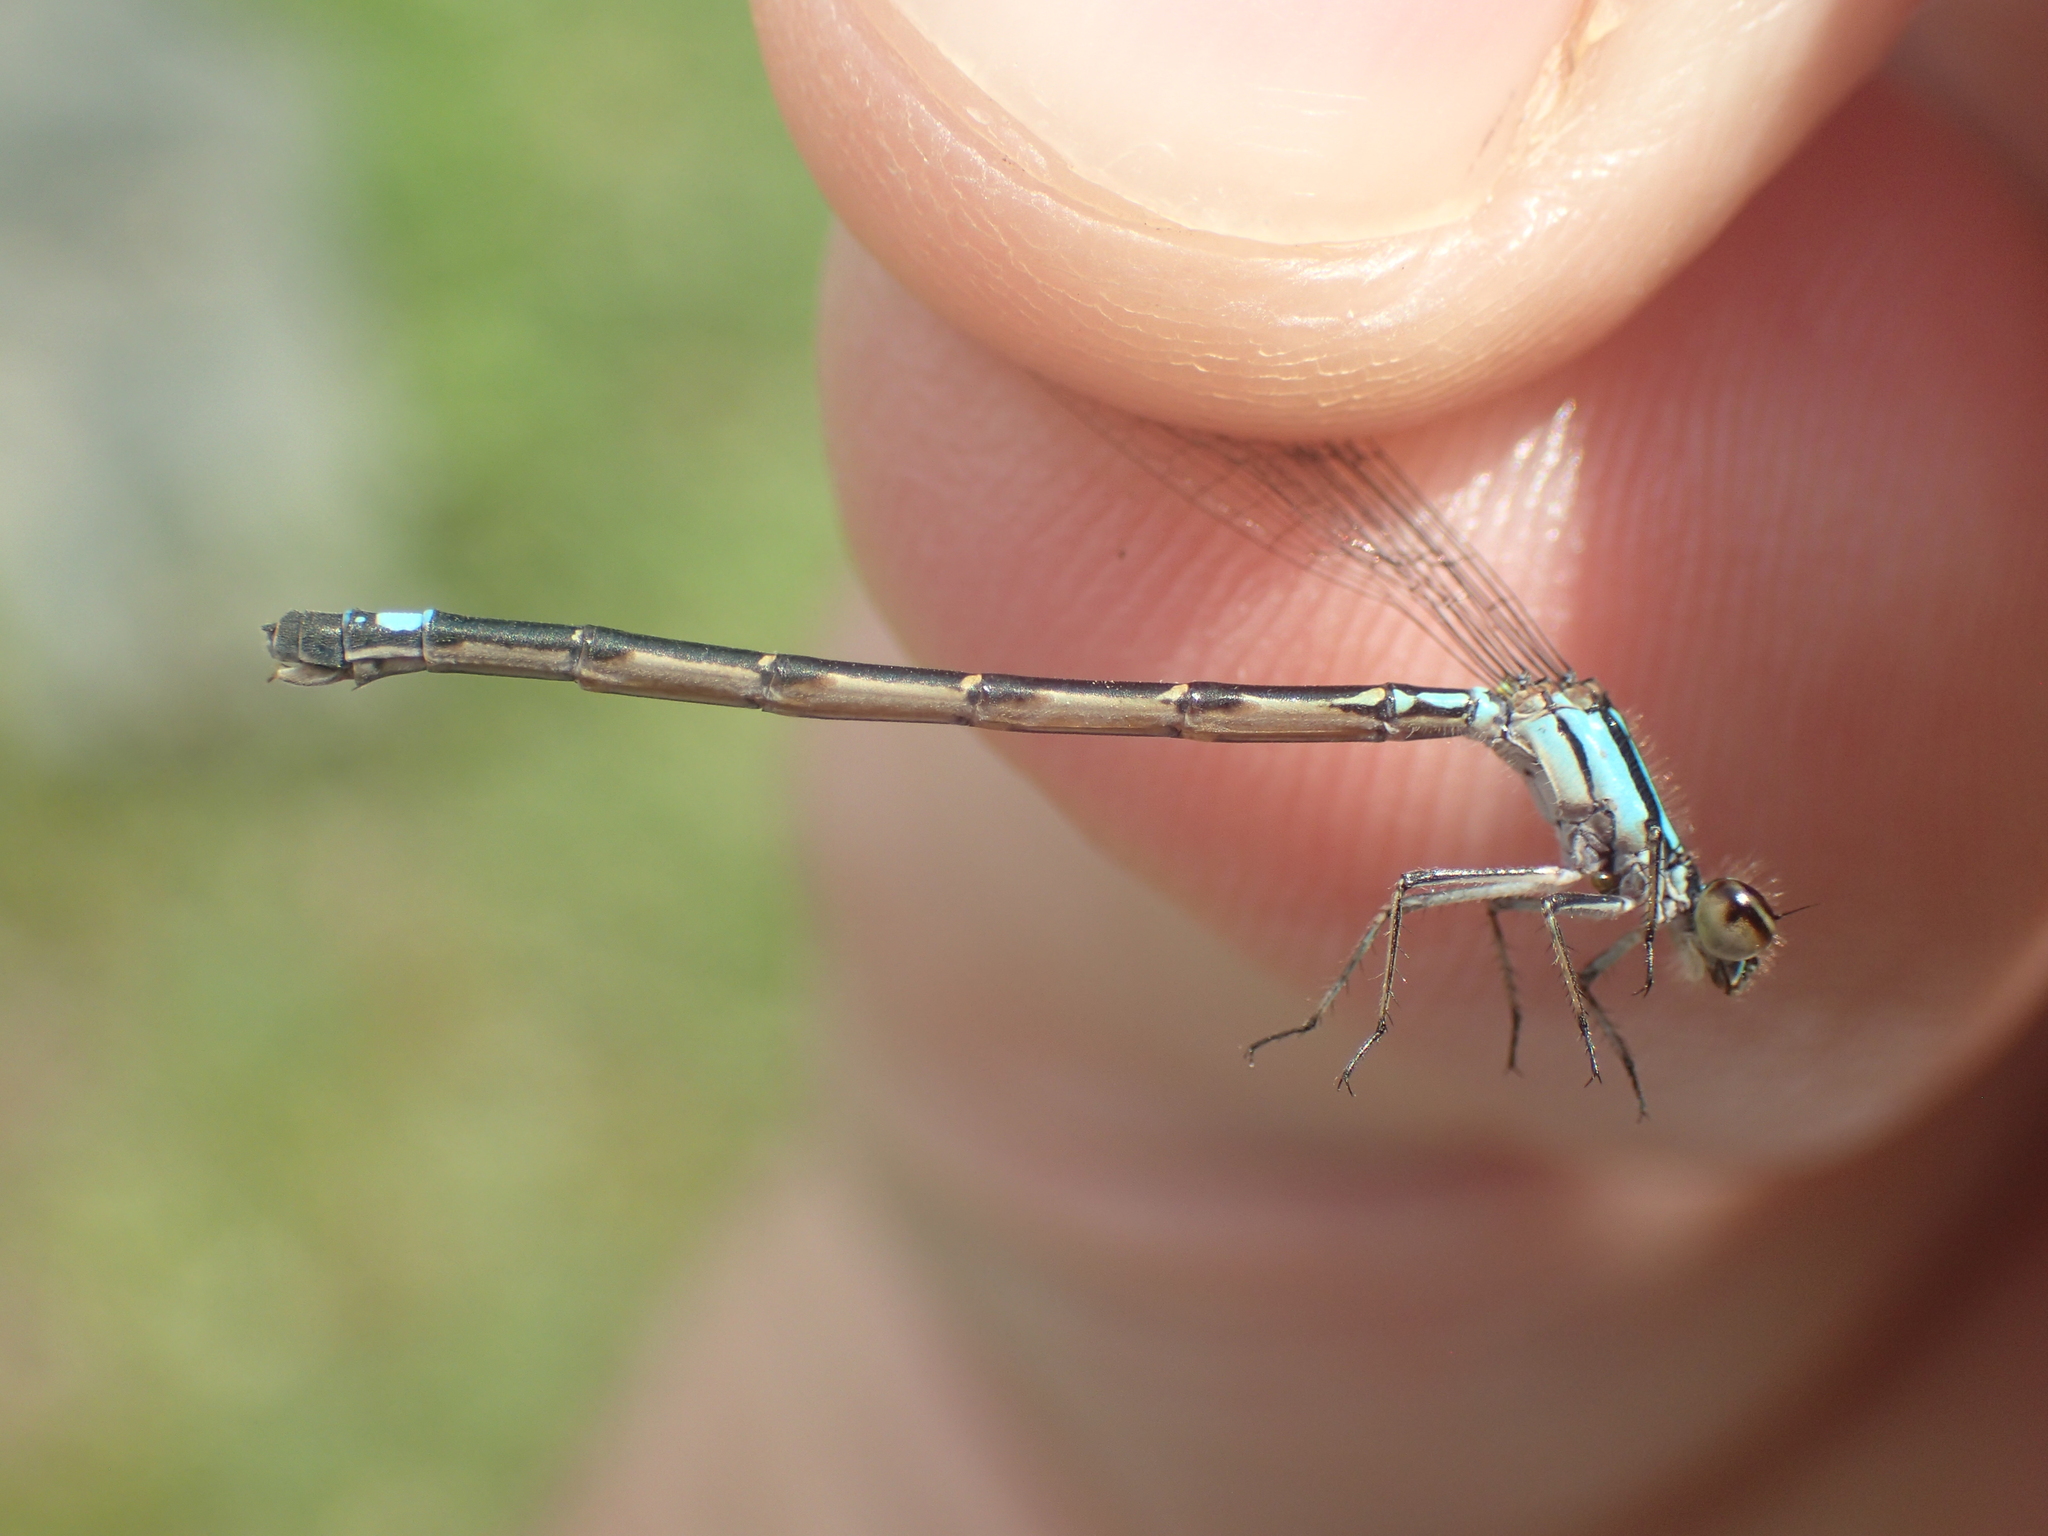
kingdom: Animalia
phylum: Arthropoda
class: Insecta
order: Odonata
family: Coenagrionidae
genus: Enallagma
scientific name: Enallagma geminatum
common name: Skimming bluet
